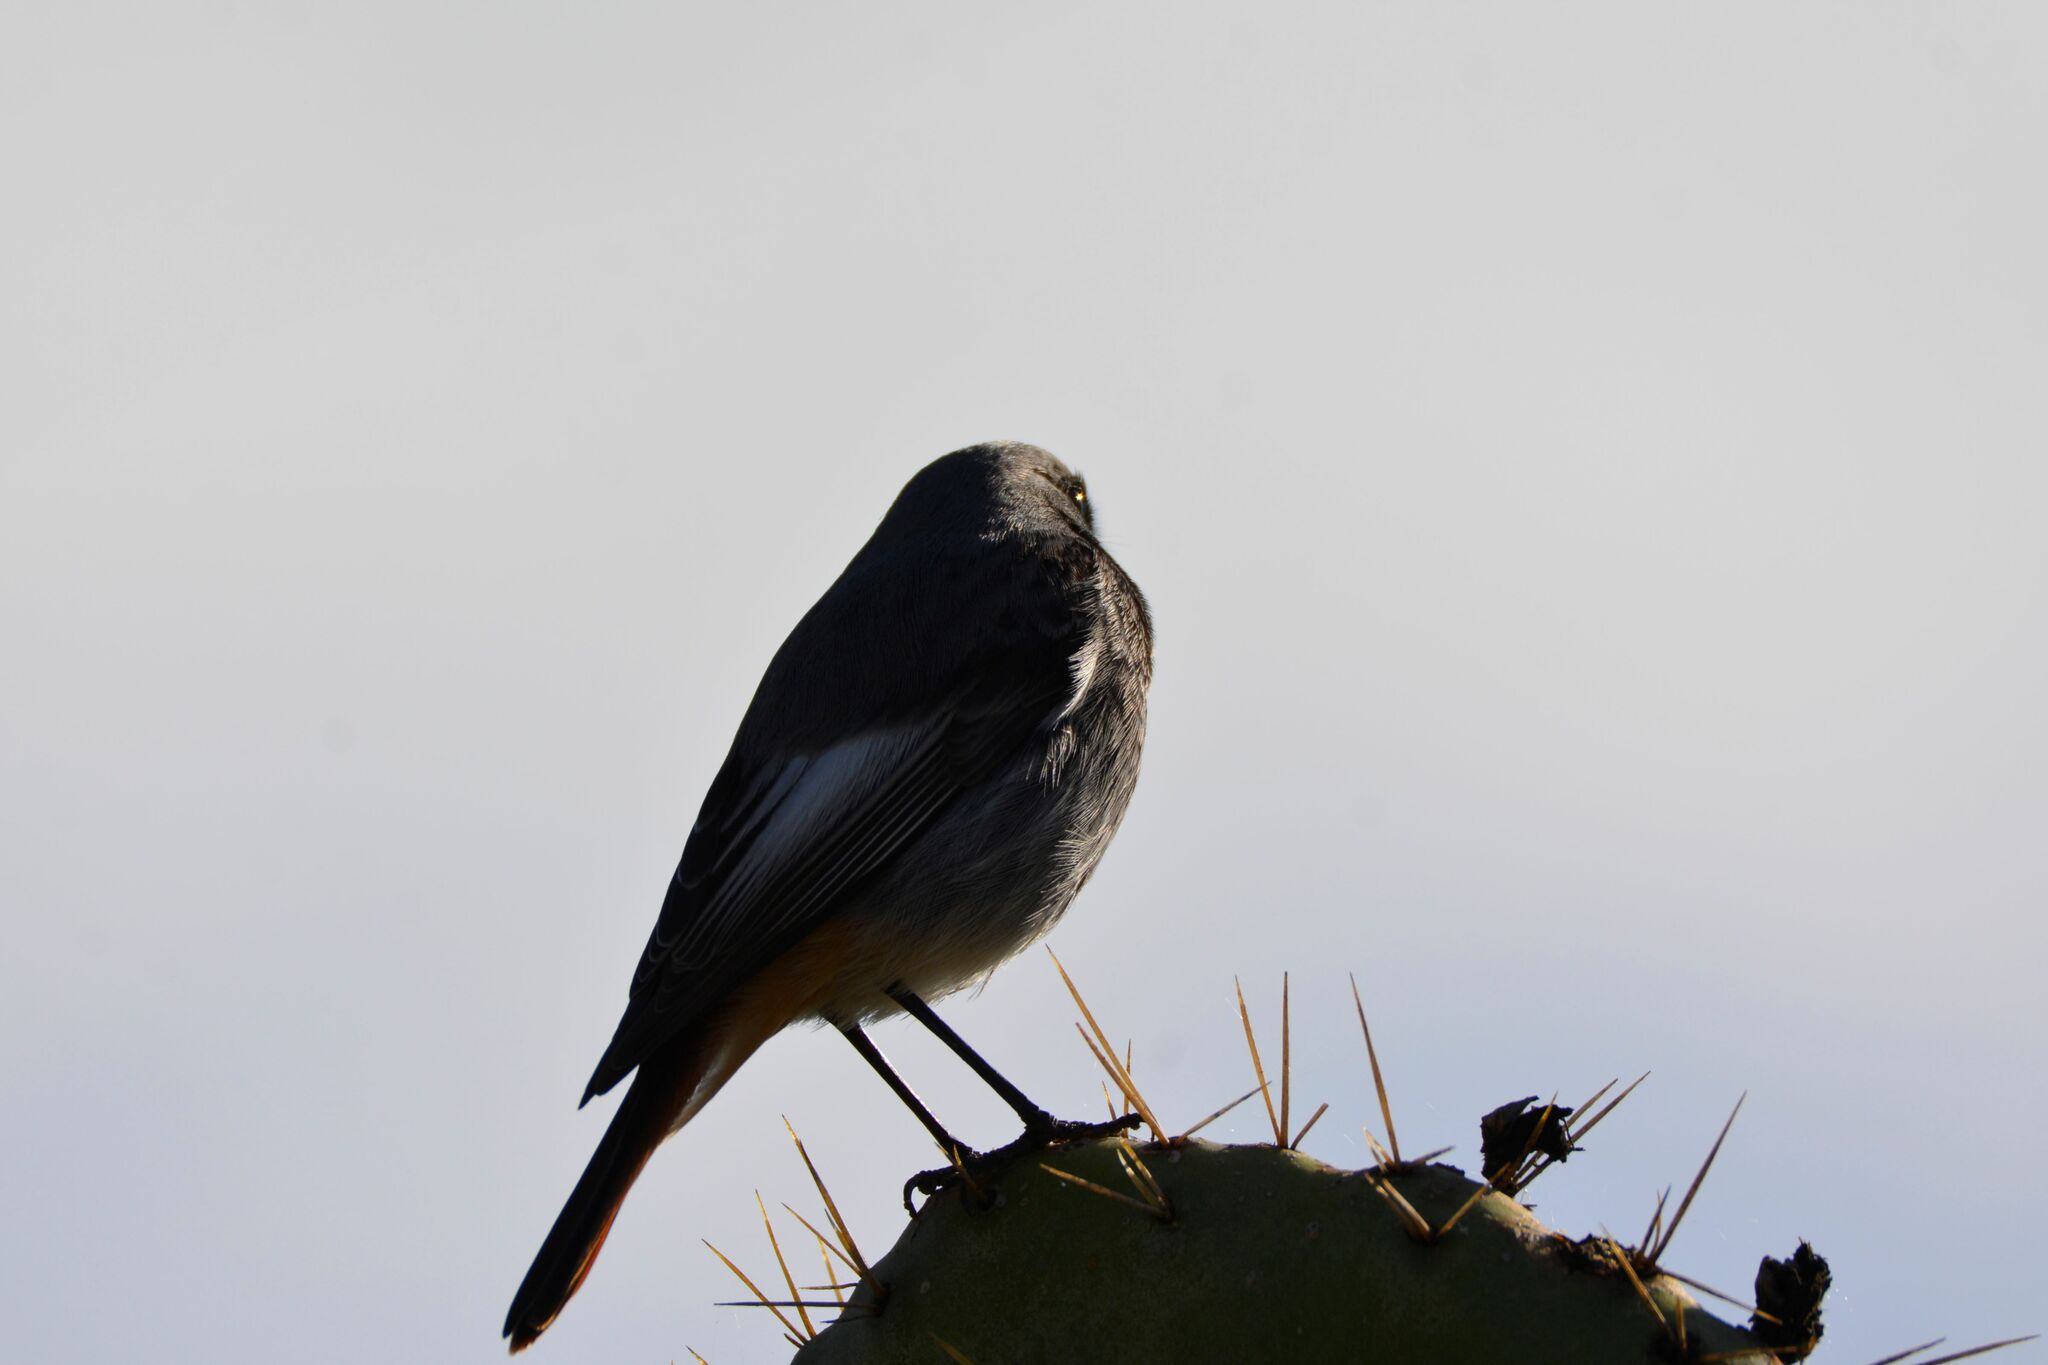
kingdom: Animalia
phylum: Chordata
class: Aves
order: Passeriformes
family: Muscicapidae
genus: Phoenicurus
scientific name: Phoenicurus ochruros
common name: Black redstart
